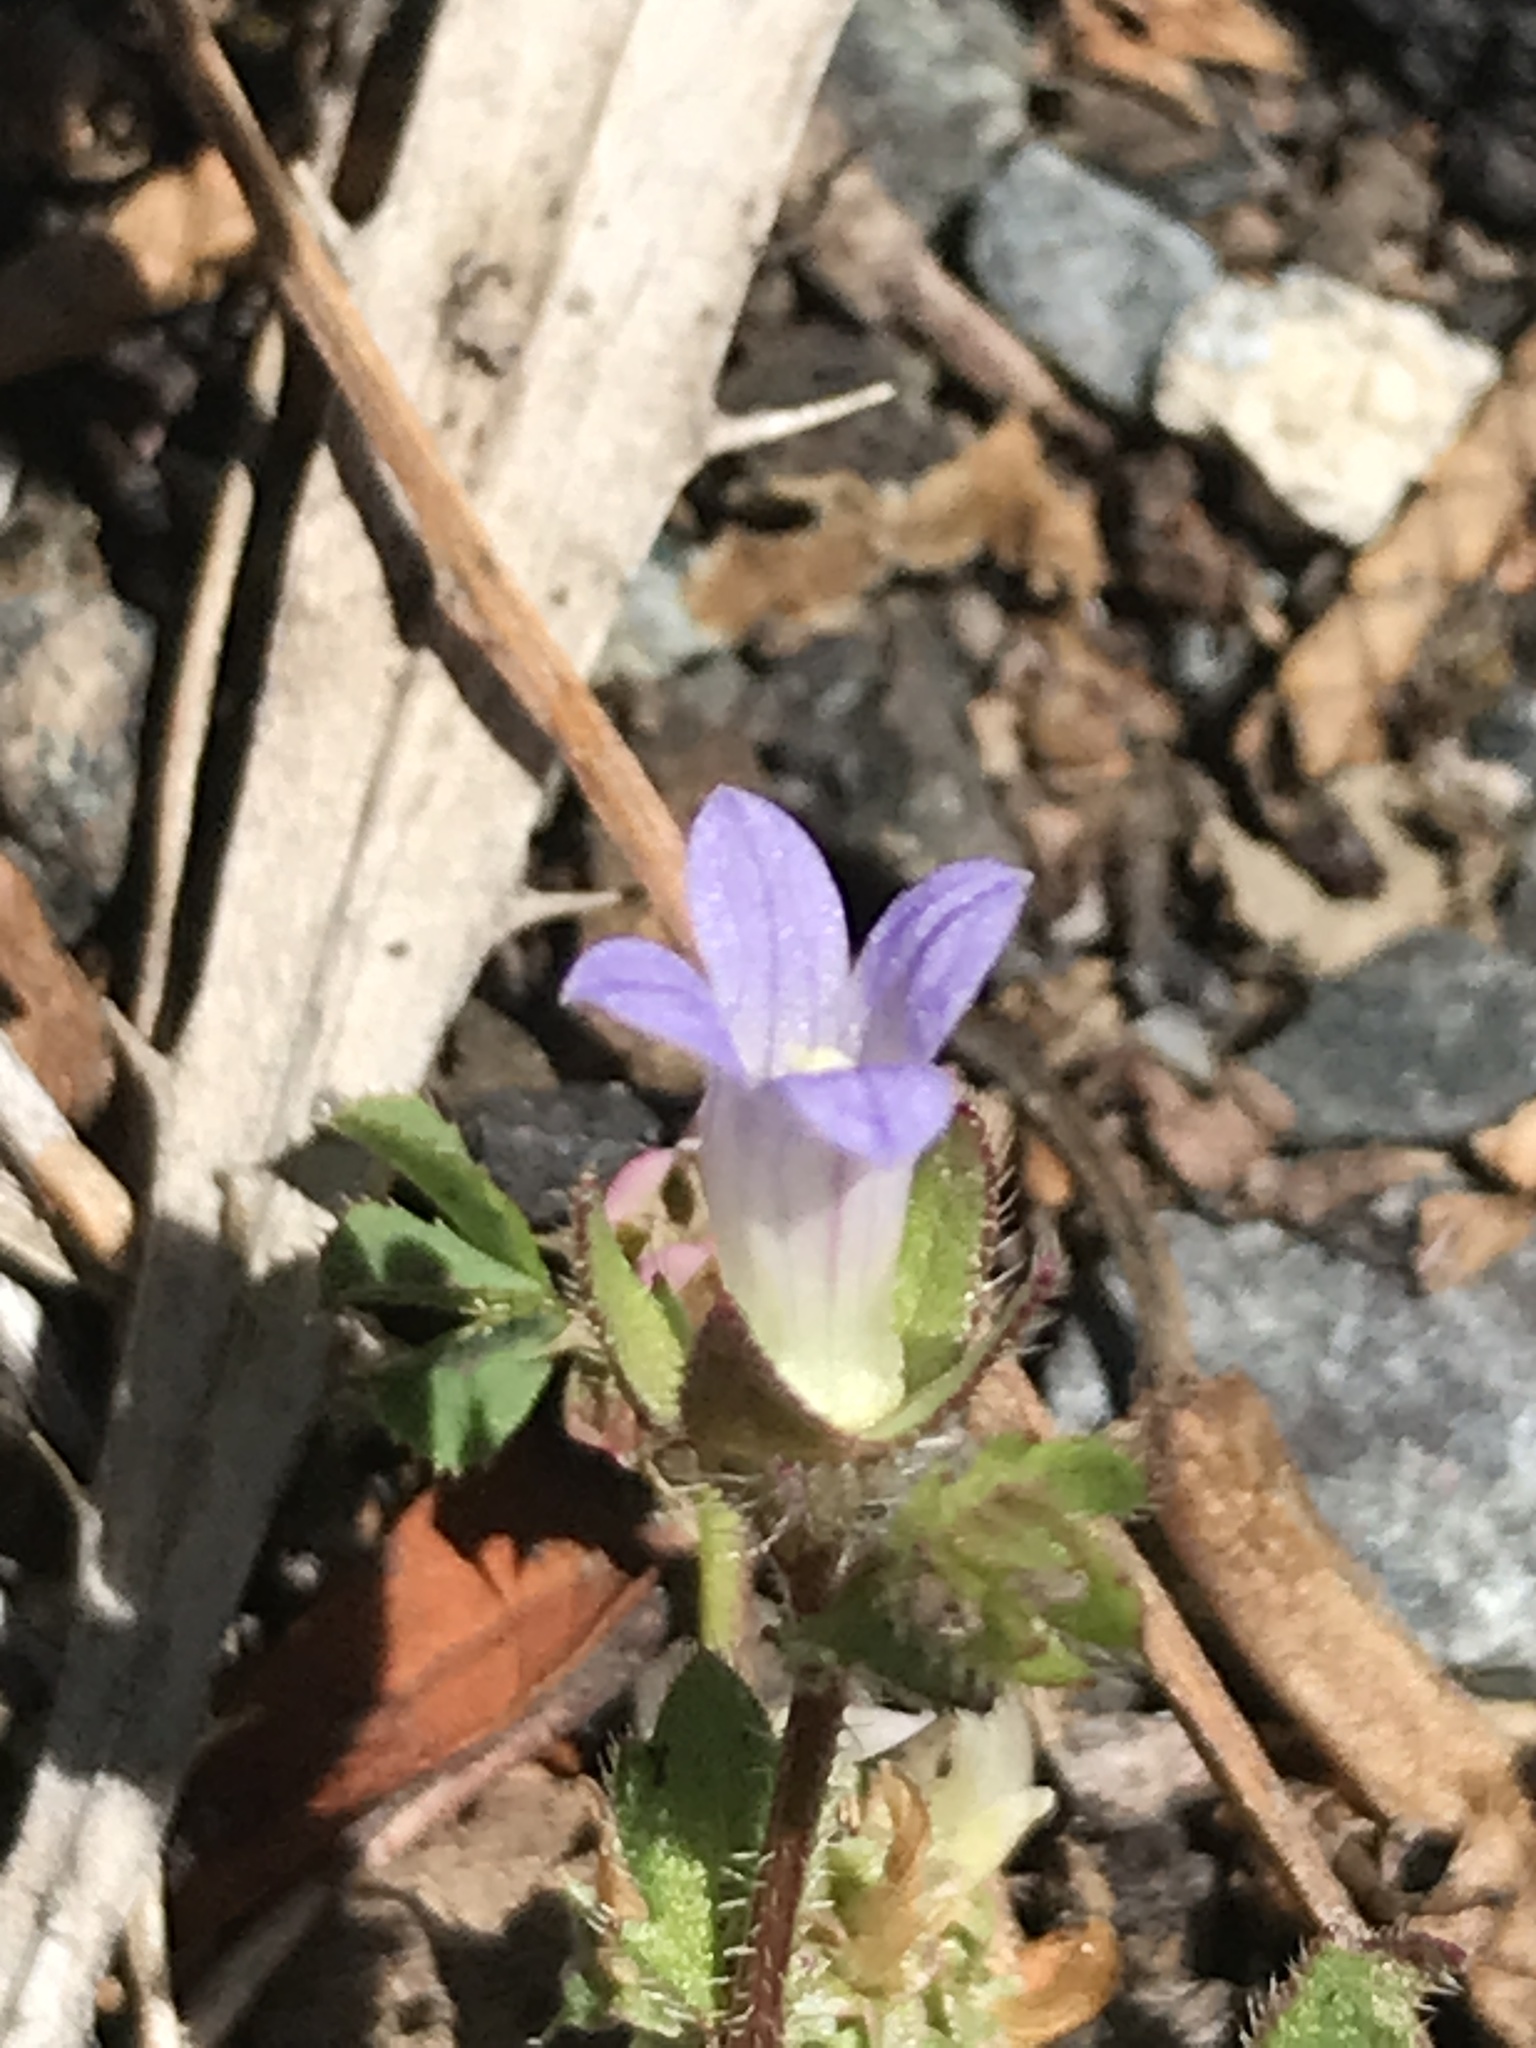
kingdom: Plantae
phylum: Tracheophyta
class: Magnoliopsida
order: Asterales
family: Campanulaceae
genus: Campanula
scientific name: Campanula erinus
